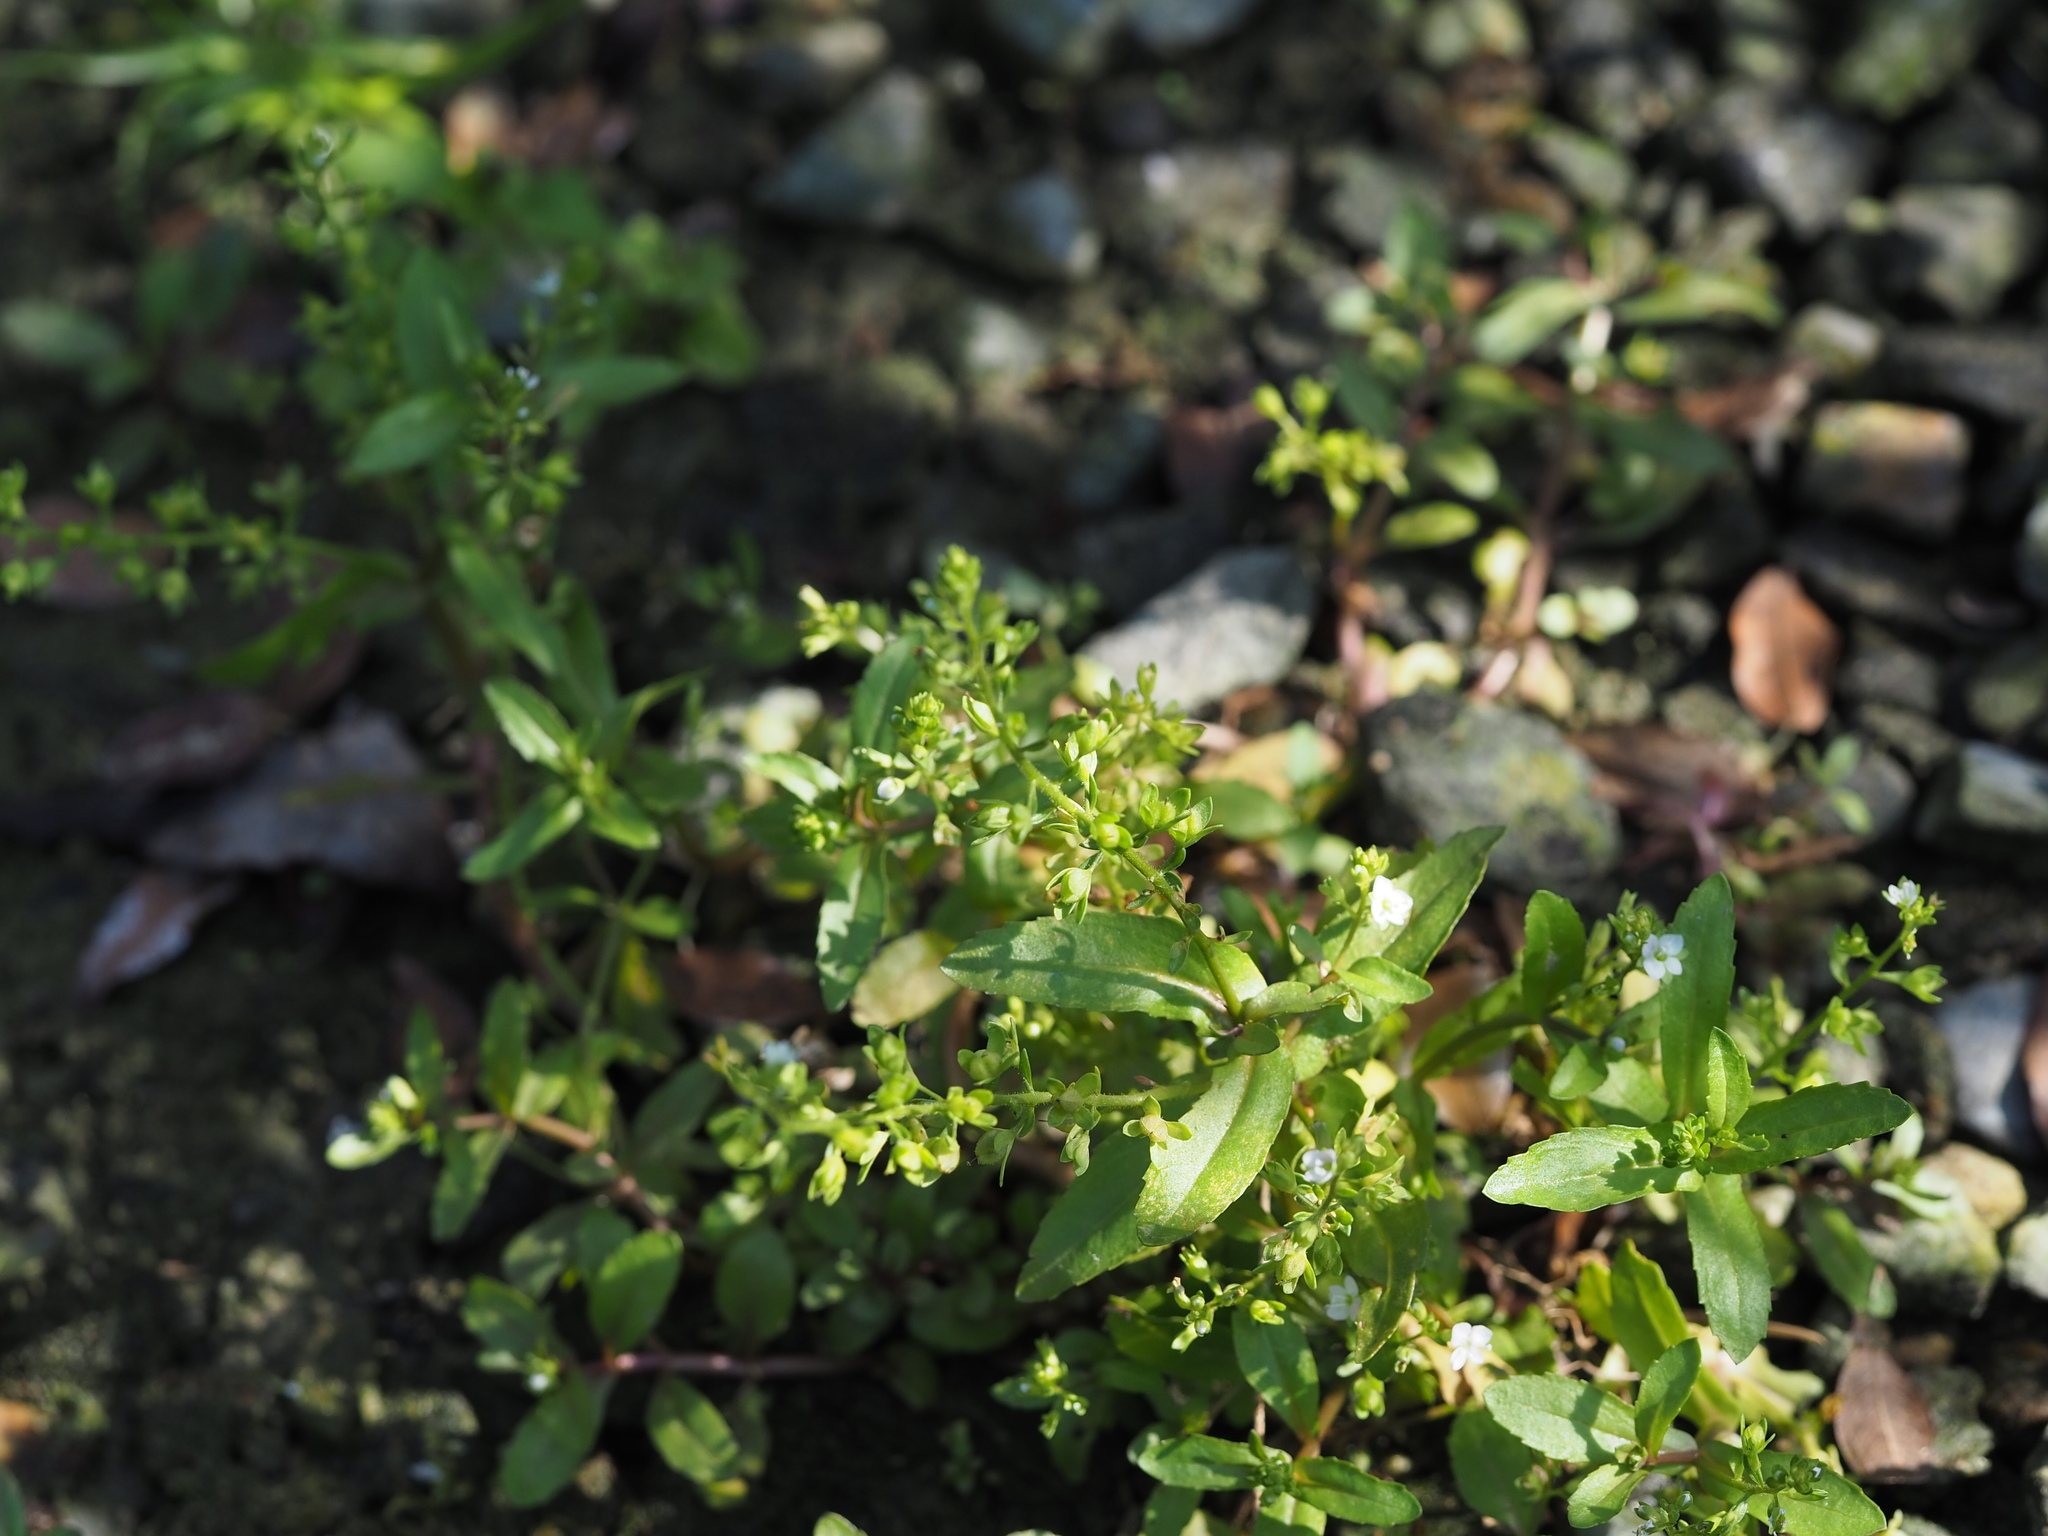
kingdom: Plantae
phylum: Tracheophyta
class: Magnoliopsida
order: Lamiales
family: Plantaginaceae
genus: Veronica
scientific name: Veronica undulata
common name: Undulate speedwell
